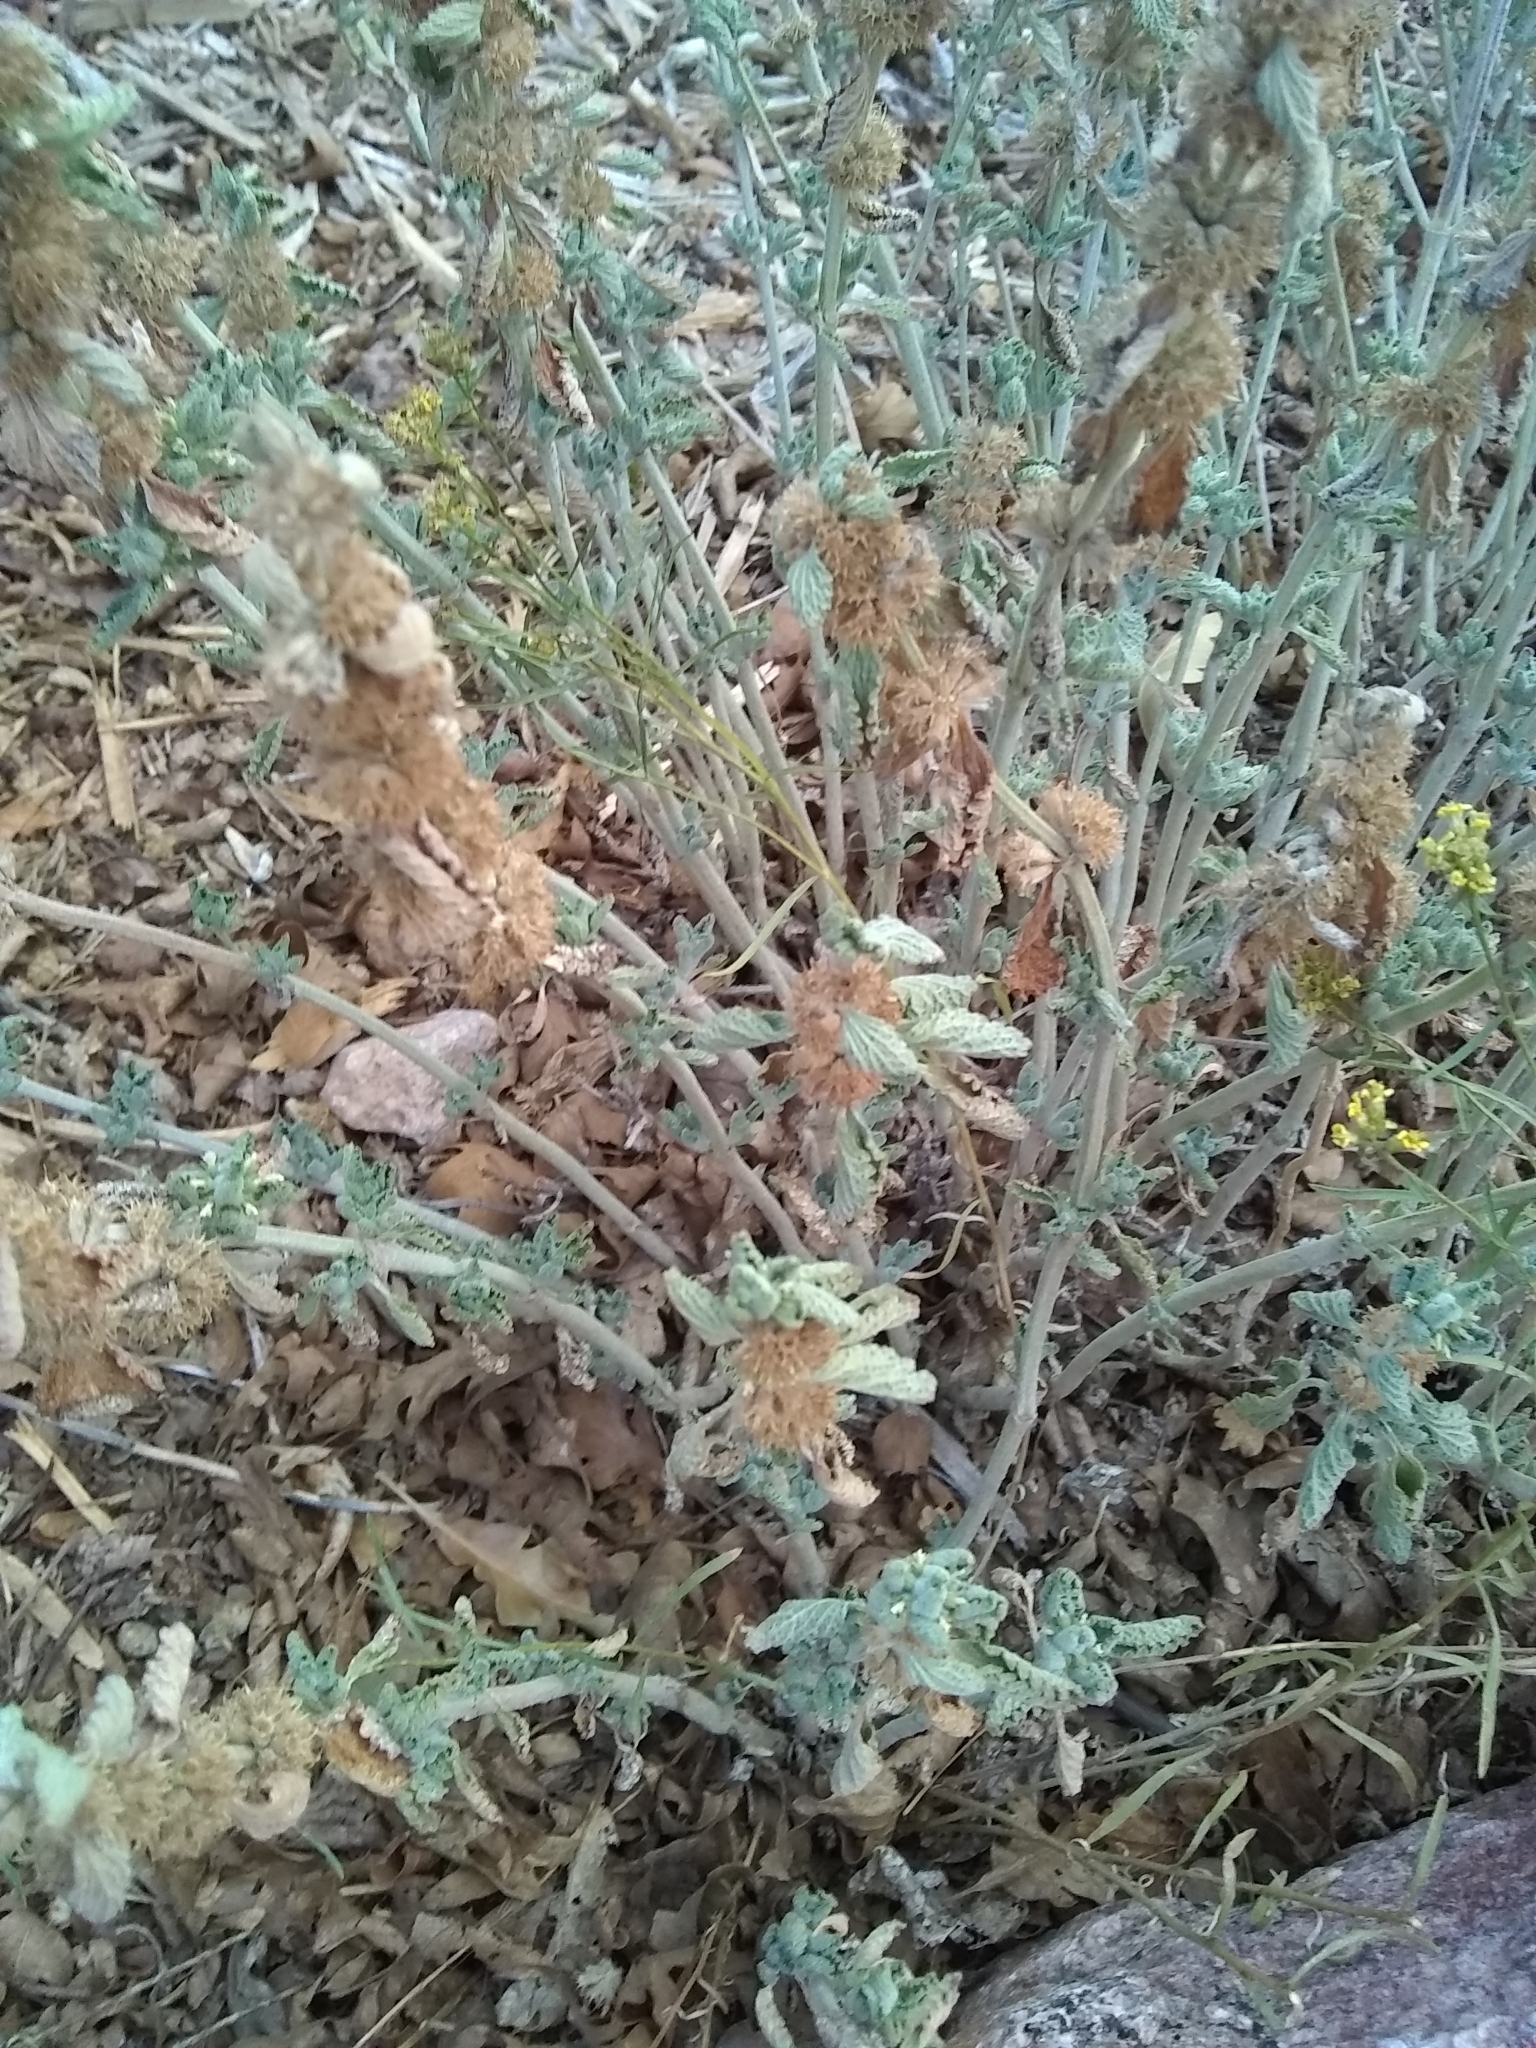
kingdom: Plantae
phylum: Tracheophyta
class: Magnoliopsida
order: Lamiales
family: Lamiaceae
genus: Marrubium
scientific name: Marrubium vulgare
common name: Horehound
